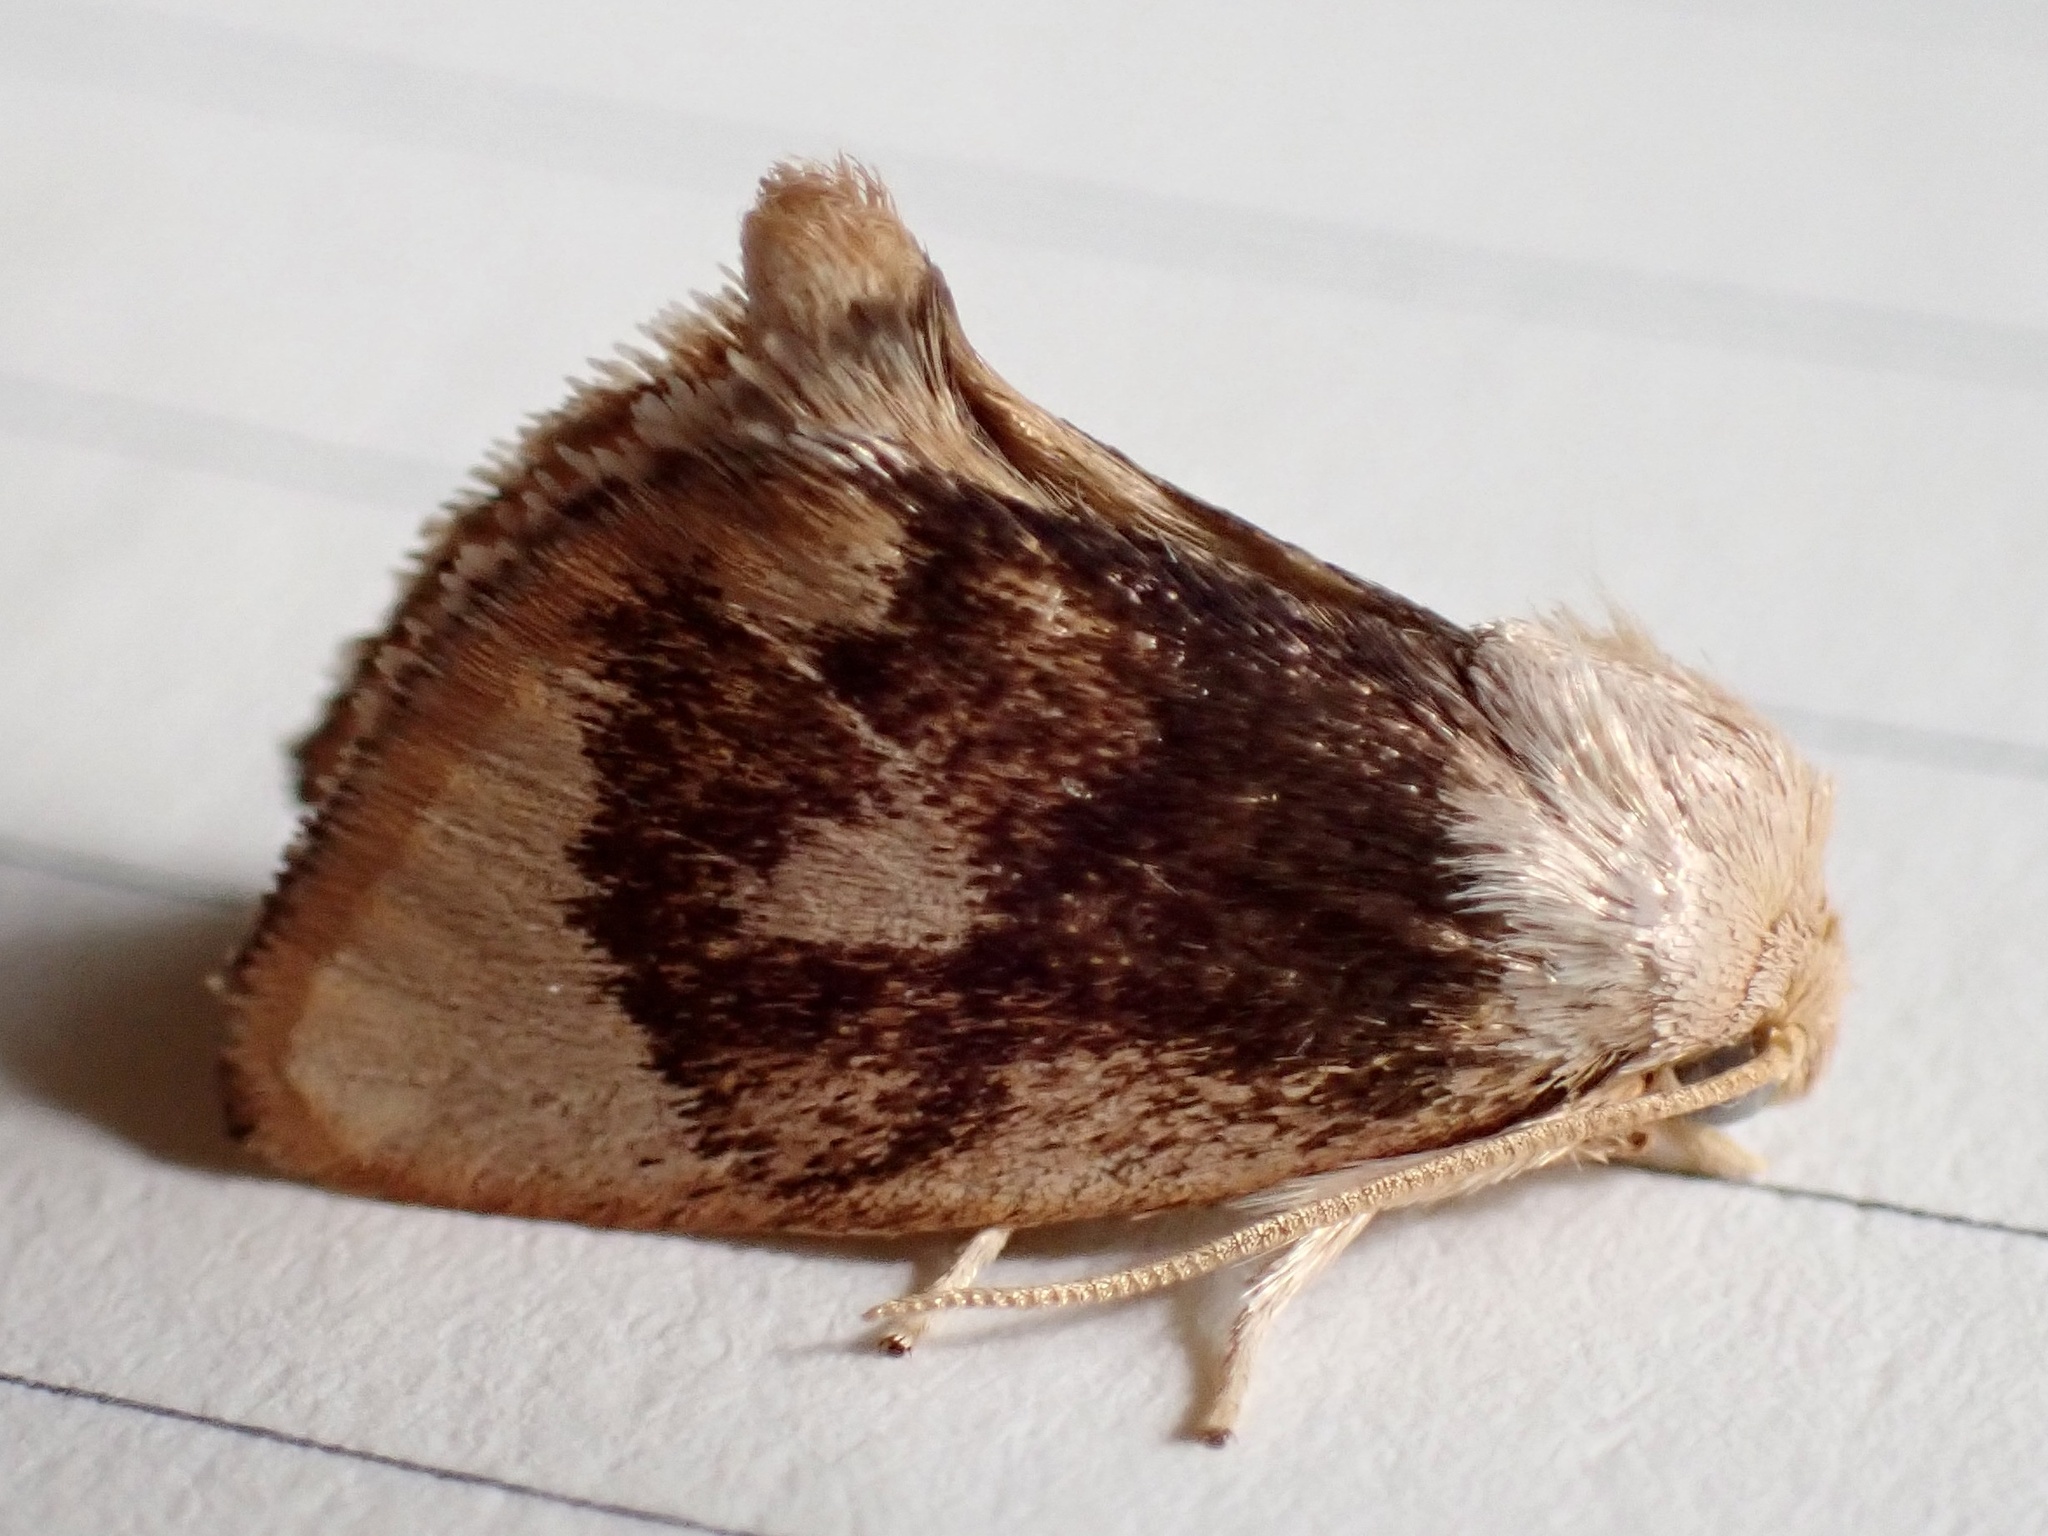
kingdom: Animalia
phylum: Arthropoda
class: Insecta
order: Lepidoptera
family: Limacodidae
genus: Tortricidia
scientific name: Tortricidia flexuosa
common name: Abbreviated button slug moth
